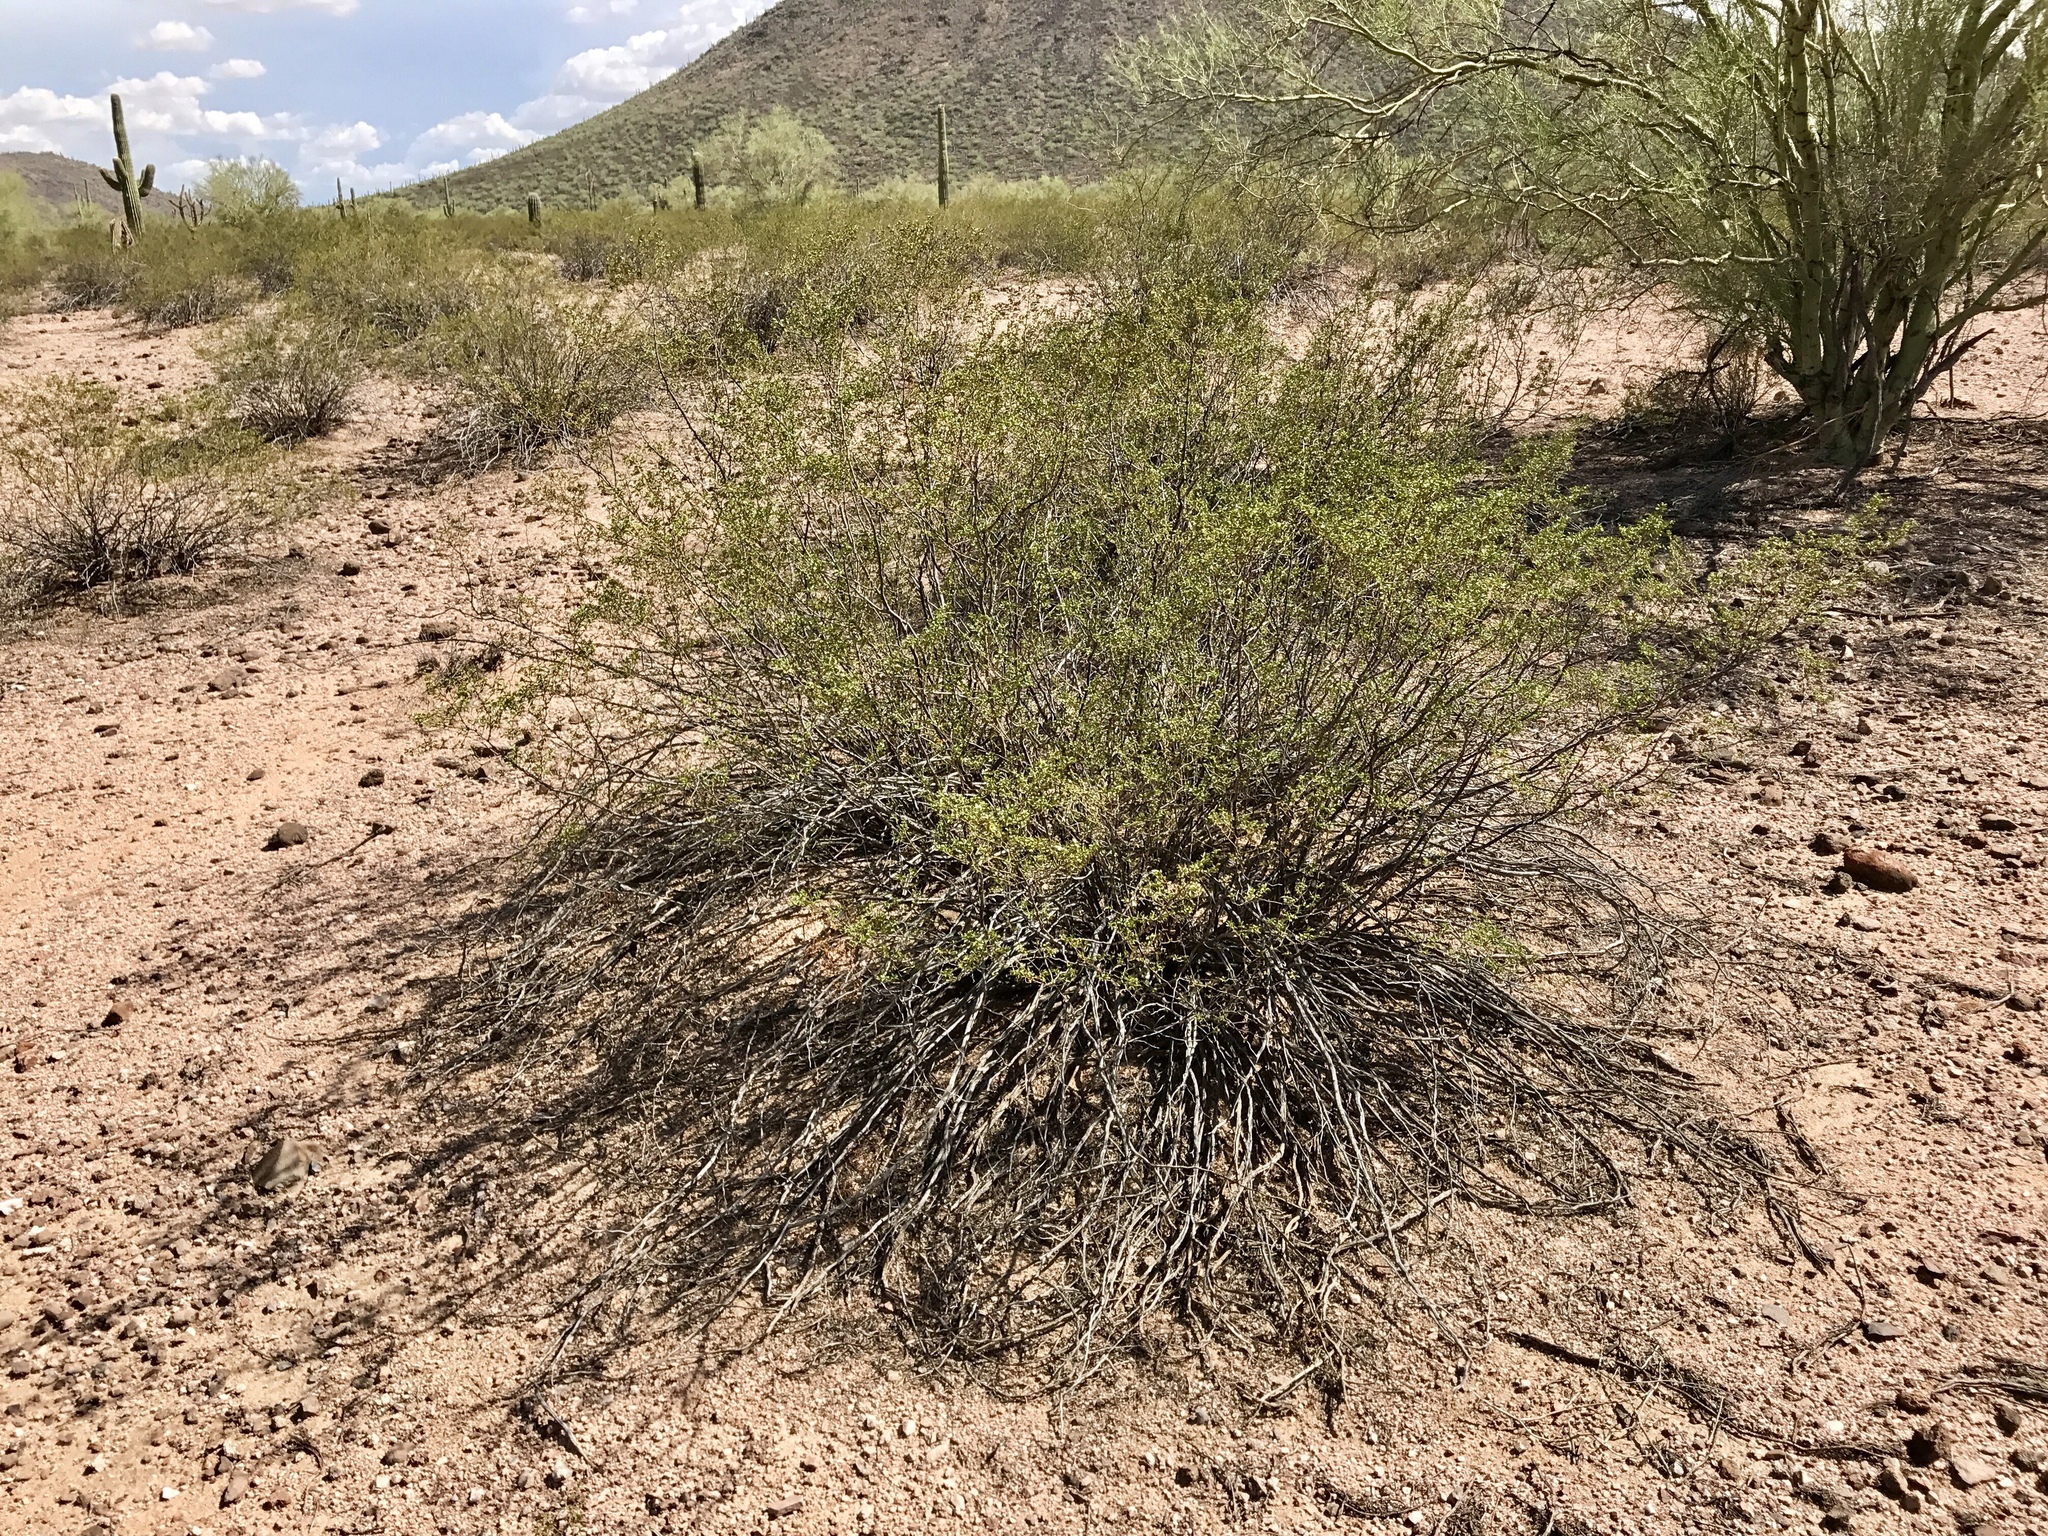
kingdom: Plantae
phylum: Tracheophyta
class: Magnoliopsida
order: Zygophyllales
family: Zygophyllaceae
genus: Larrea
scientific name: Larrea tridentata
